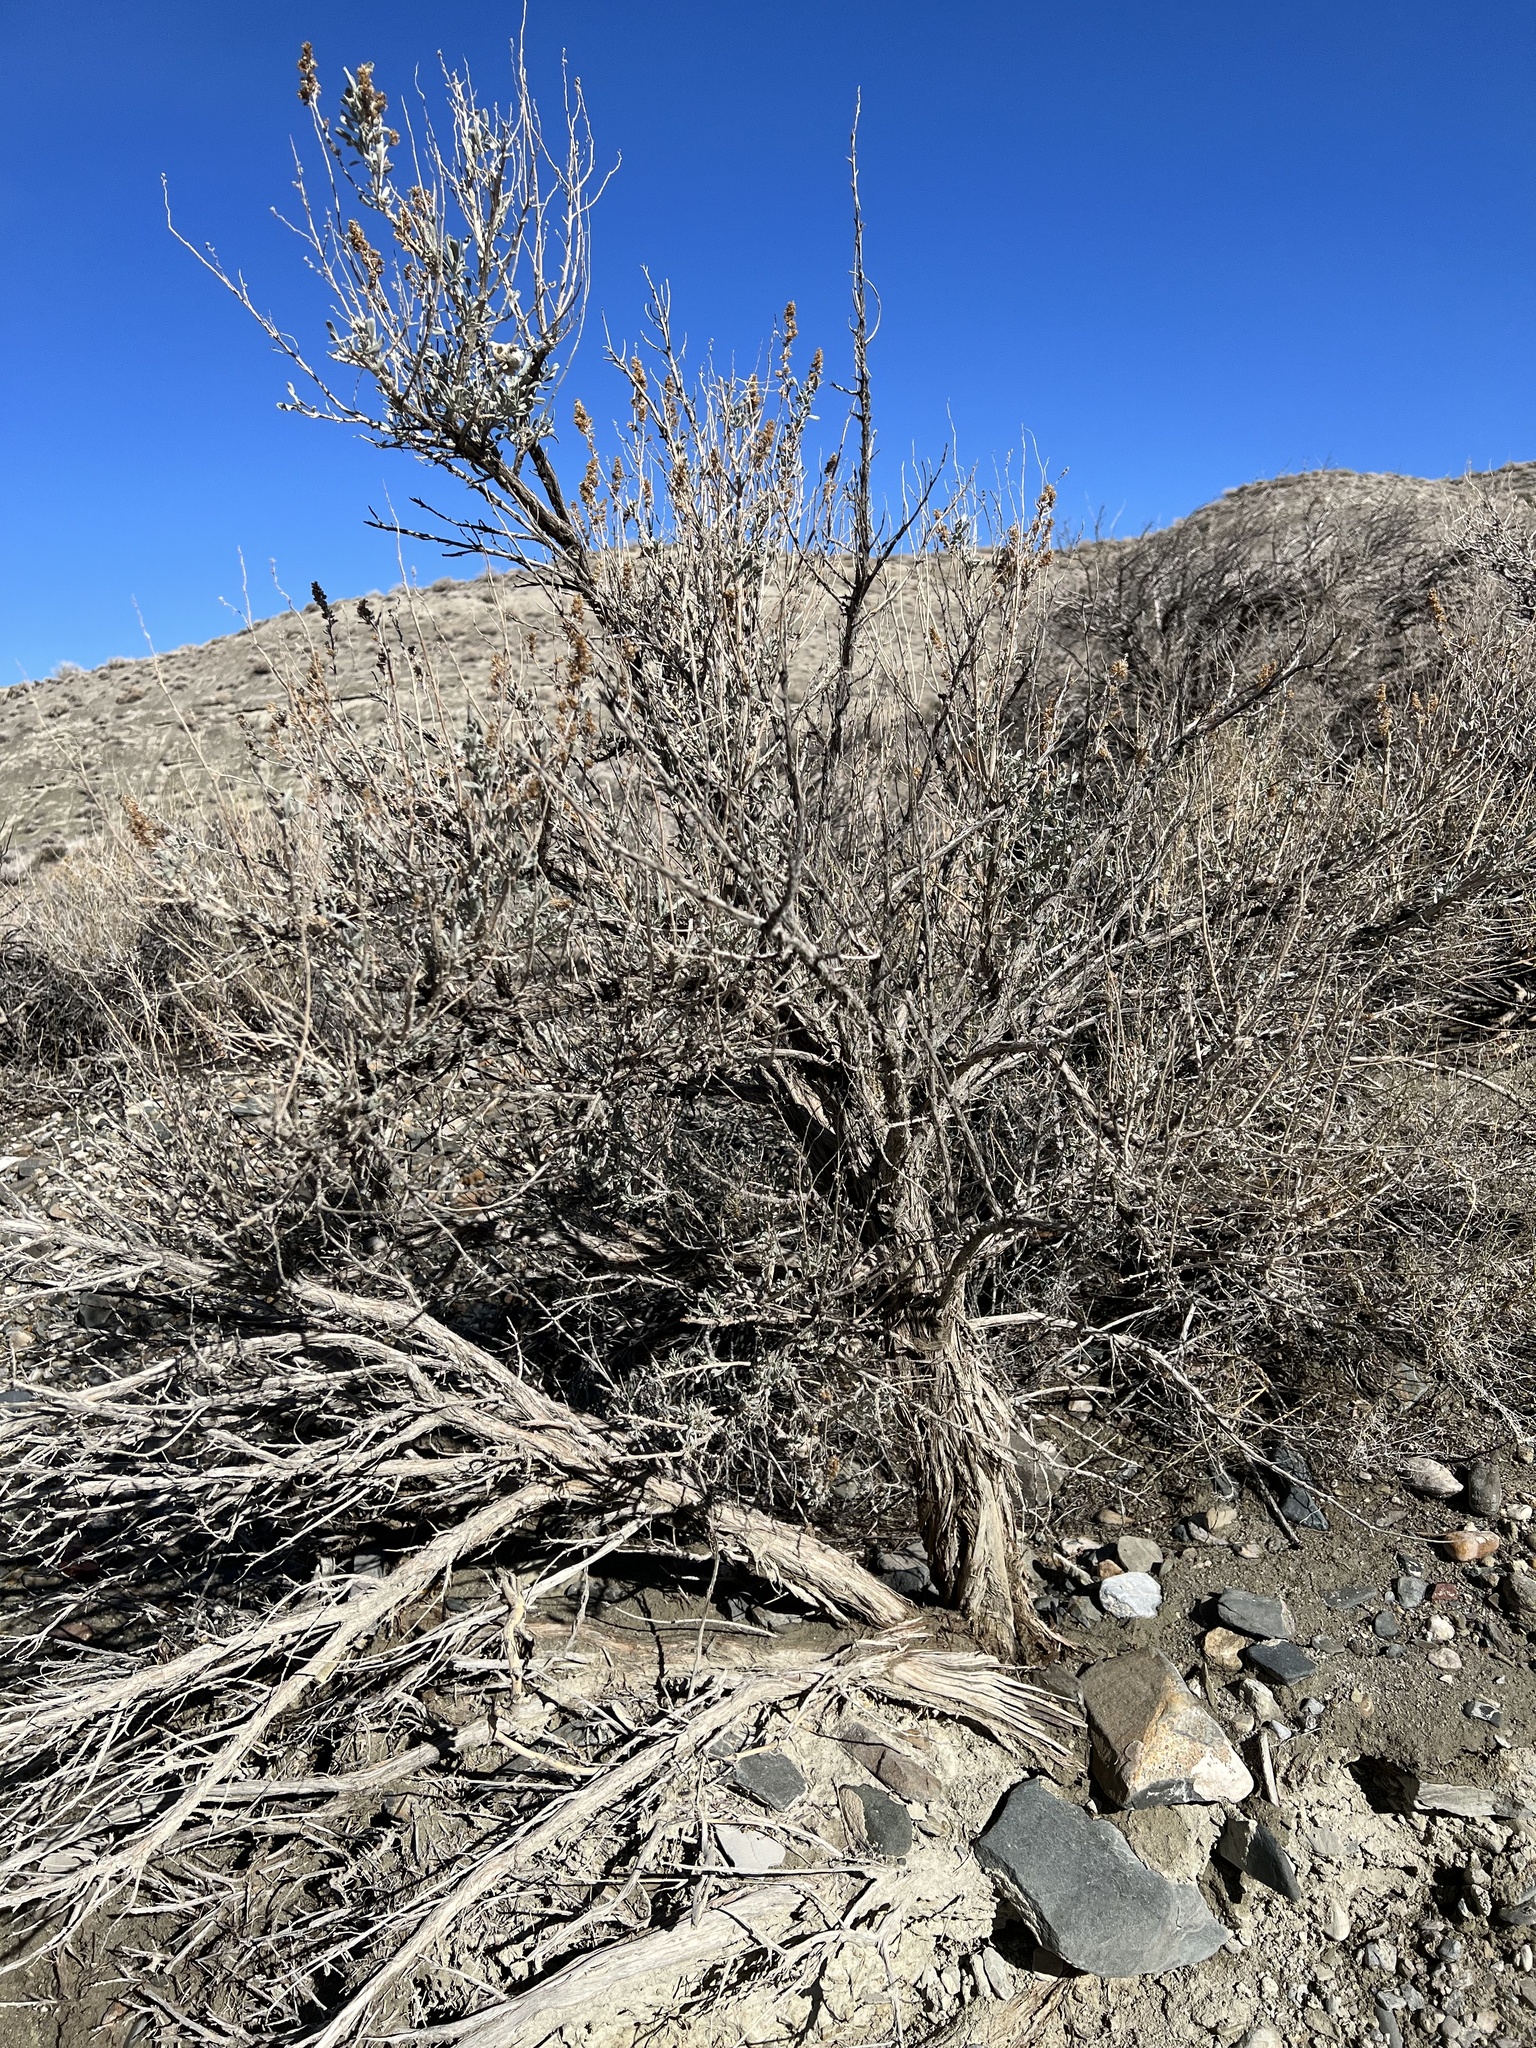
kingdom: Plantae
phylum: Tracheophyta
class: Magnoliopsida
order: Asterales
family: Asteraceae
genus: Artemisia
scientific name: Artemisia tridentata
